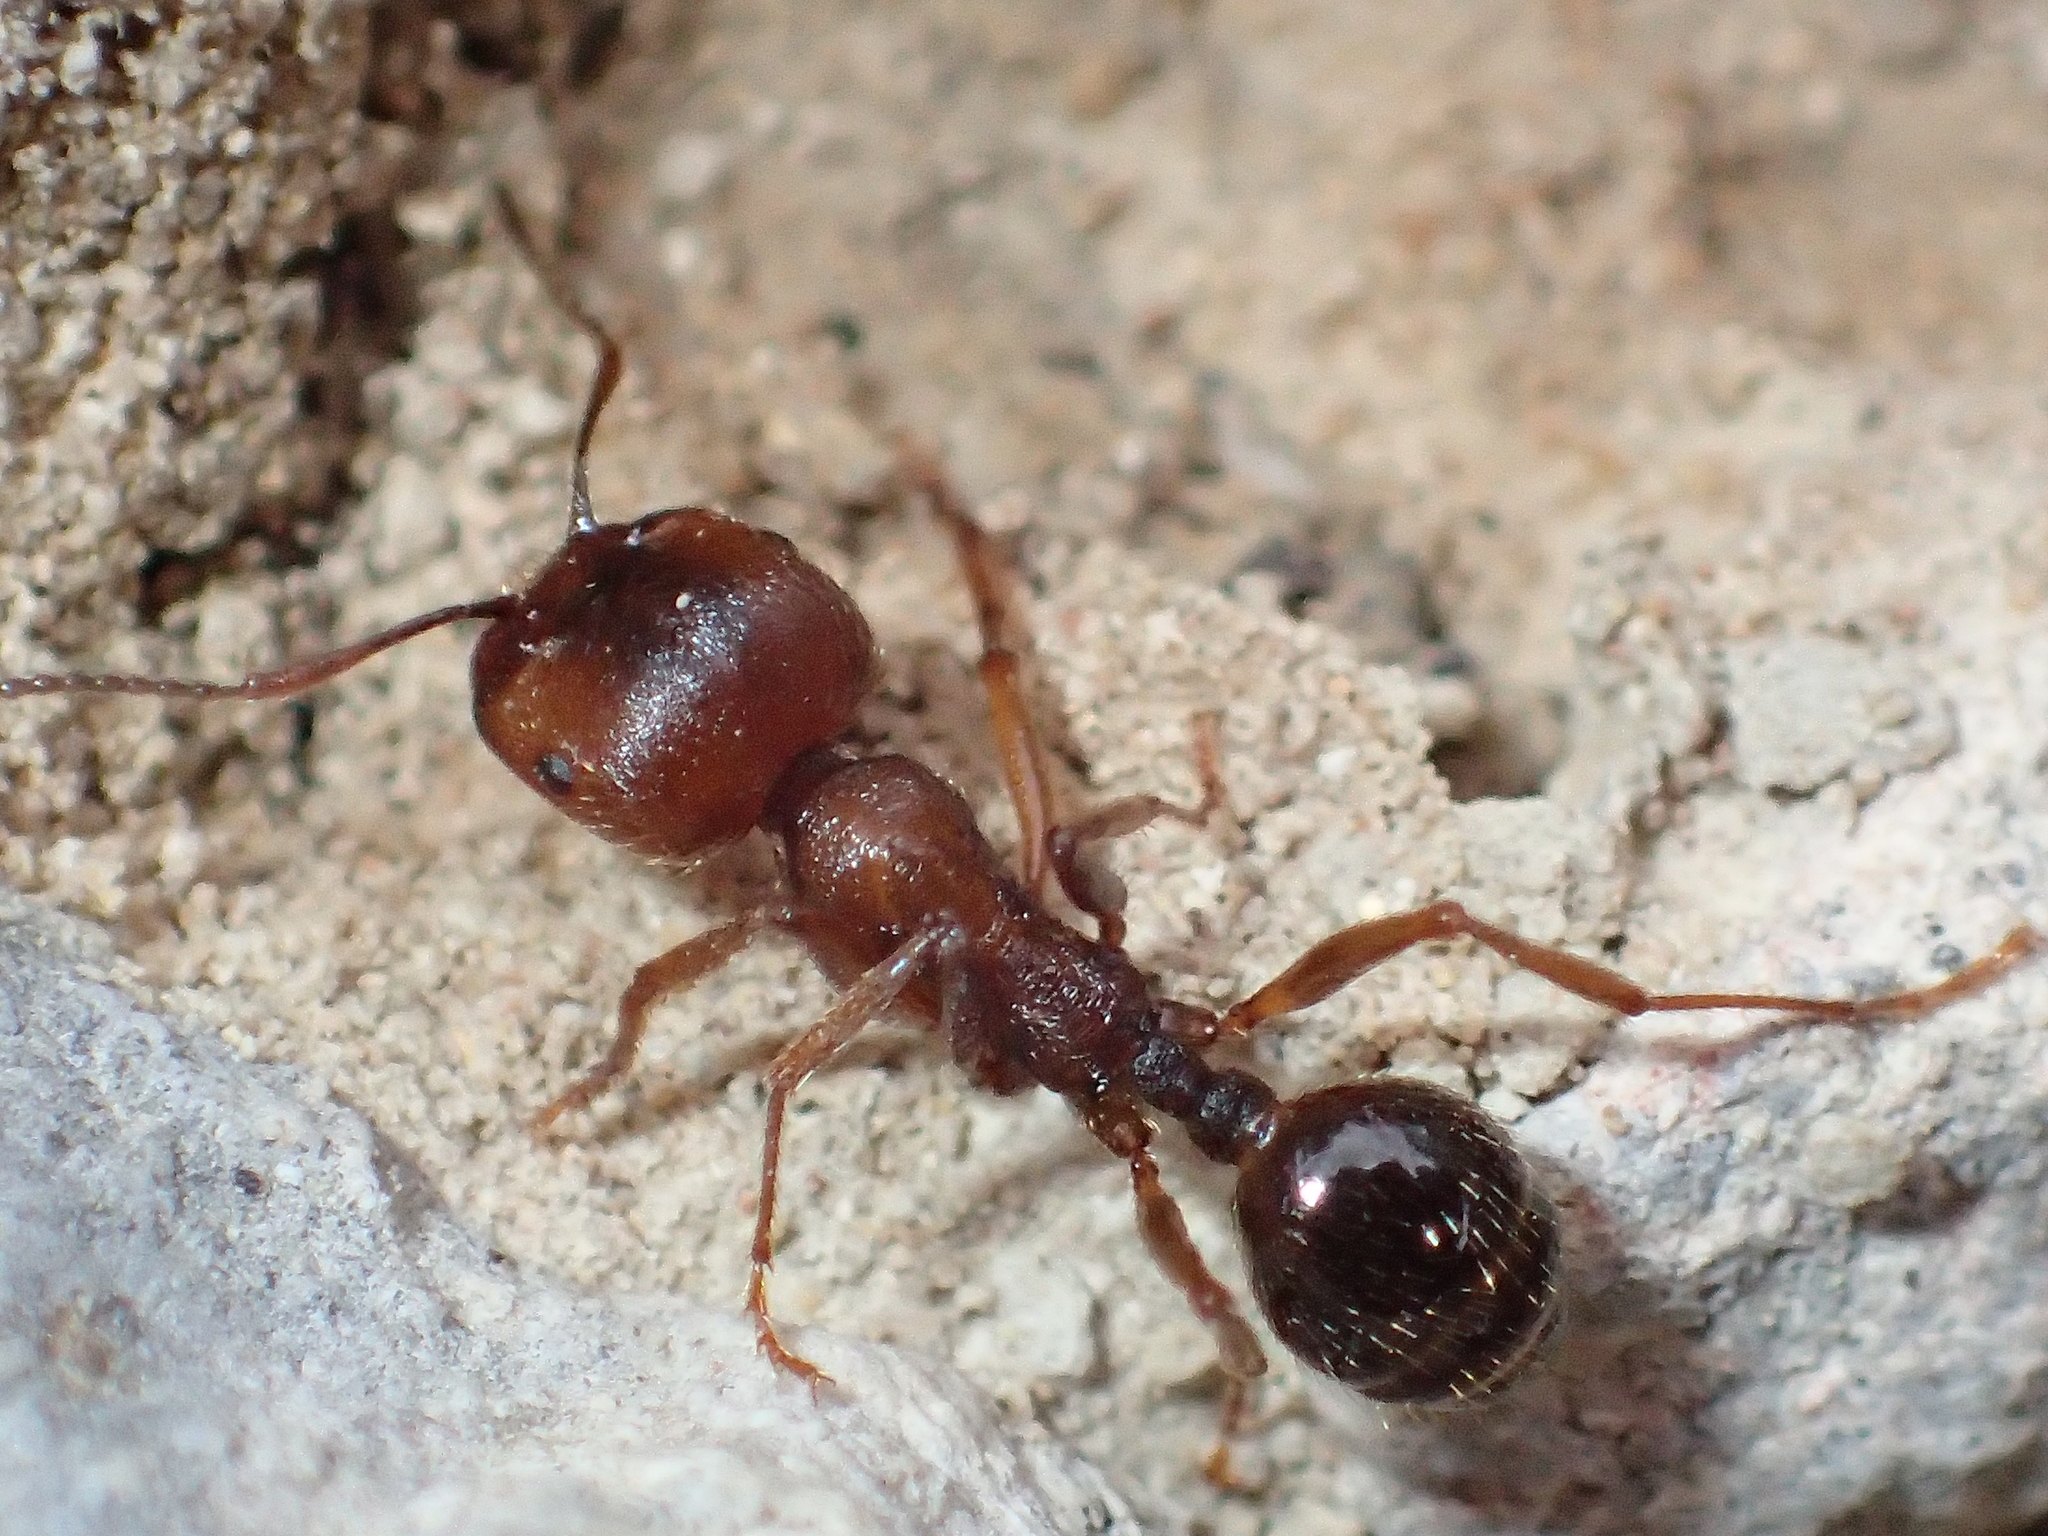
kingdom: Animalia
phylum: Arthropoda
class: Insecta
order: Hymenoptera
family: Formicidae
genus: Messor
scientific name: Messor structor
